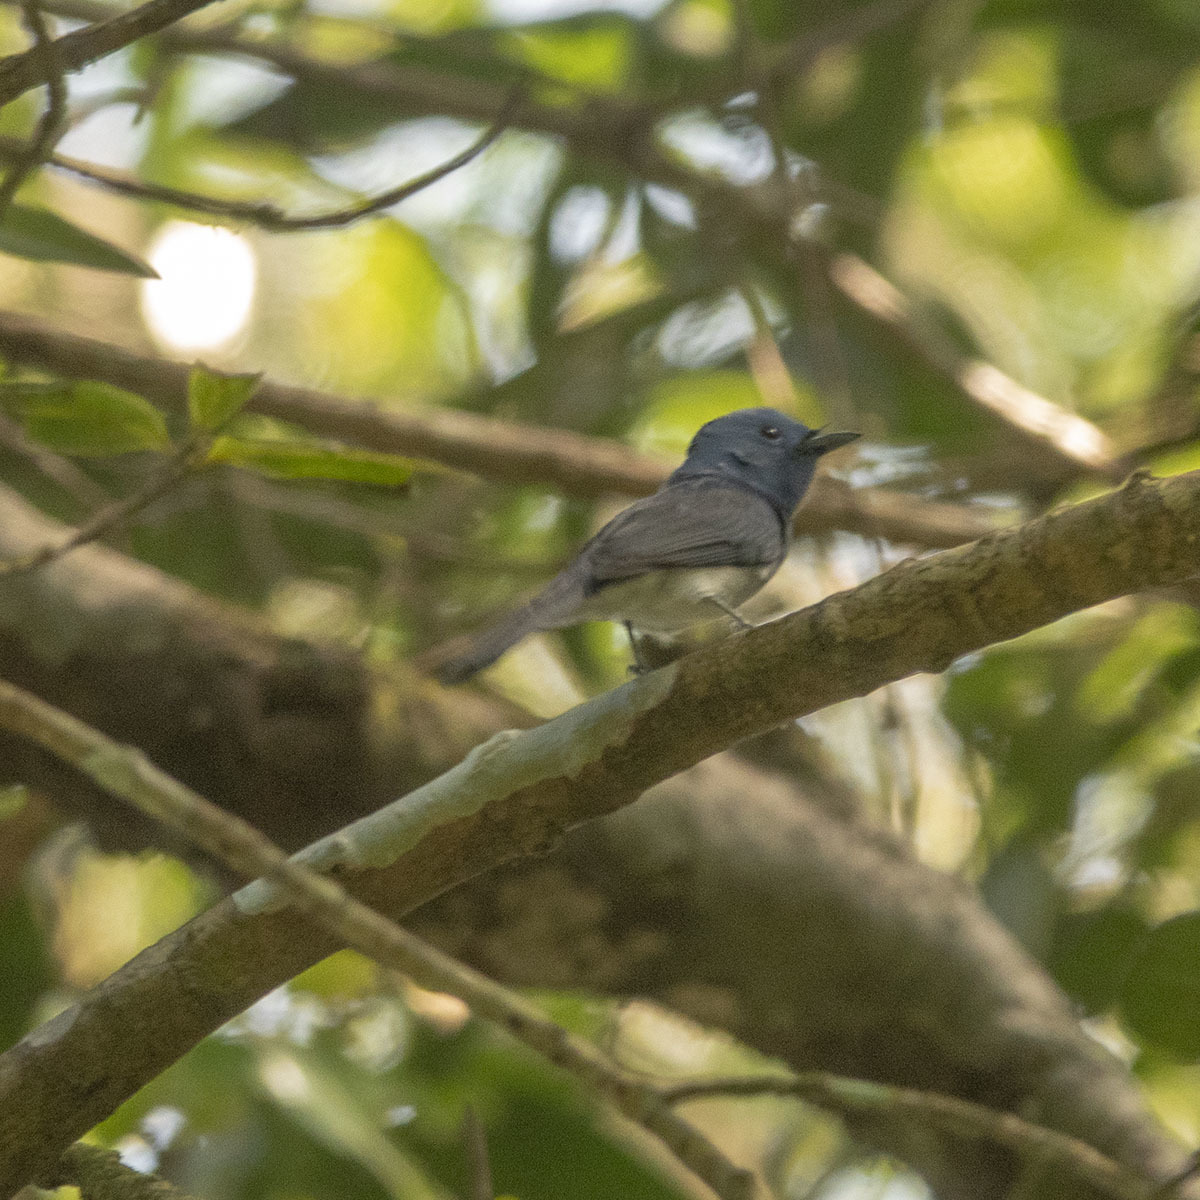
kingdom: Animalia
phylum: Chordata
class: Aves
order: Passeriformes
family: Monarchidae
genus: Hypothymis
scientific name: Hypothymis azurea
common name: Black-naped monarch
